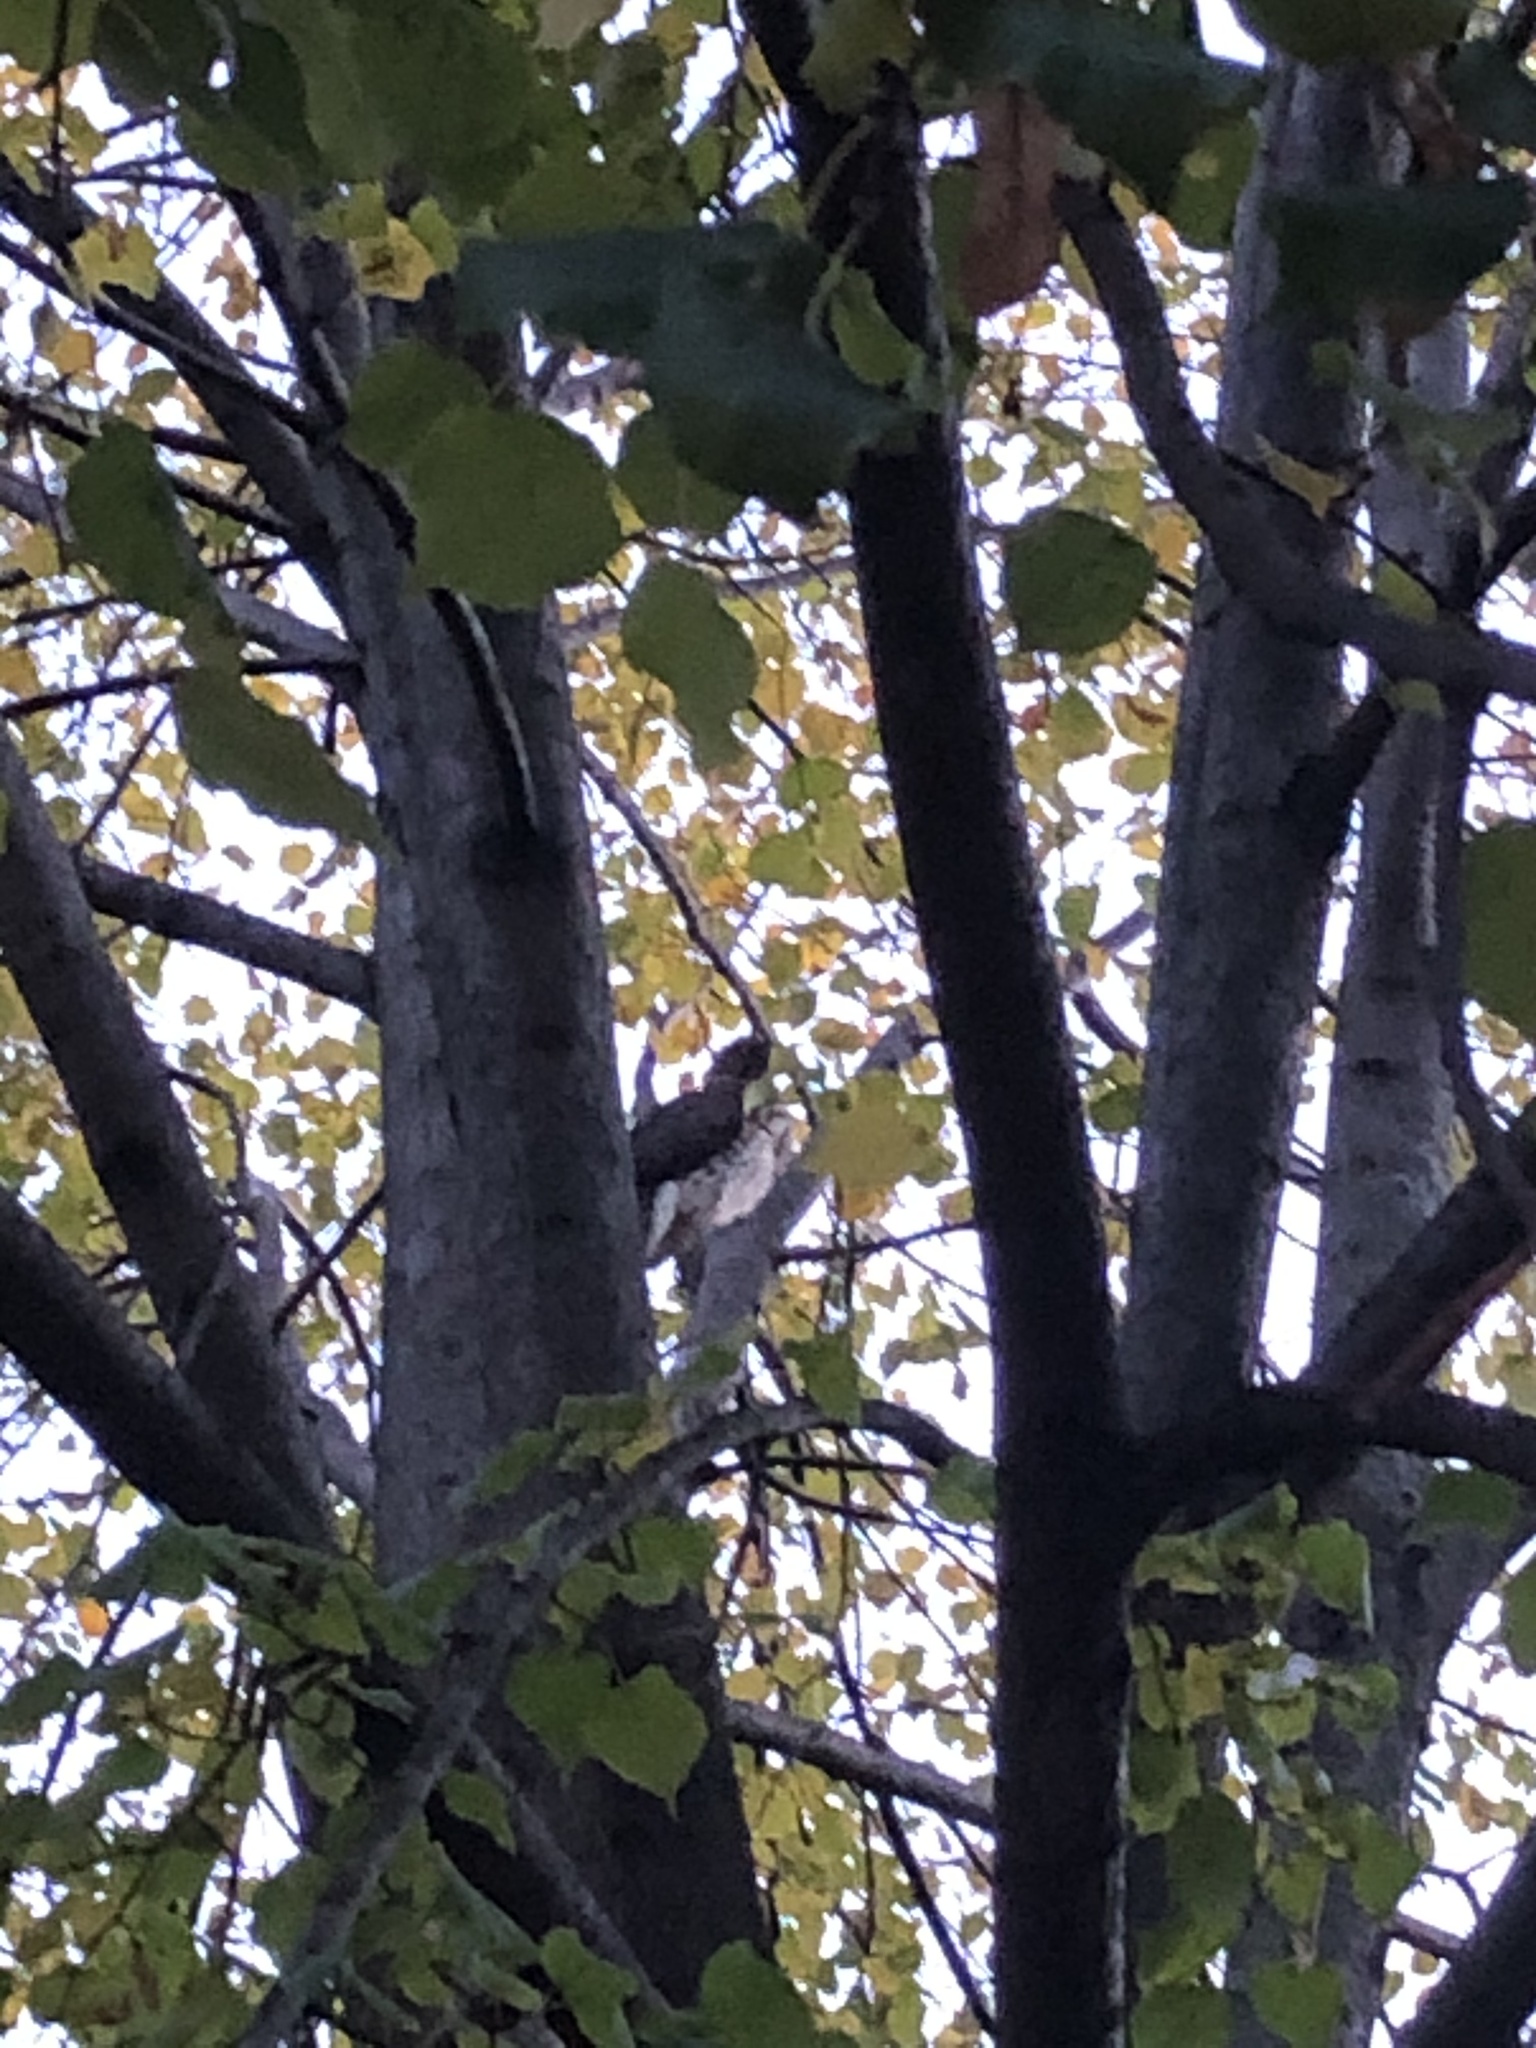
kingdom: Animalia
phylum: Chordata
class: Aves
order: Accipitriformes
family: Accipitridae
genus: Accipiter
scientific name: Accipiter
